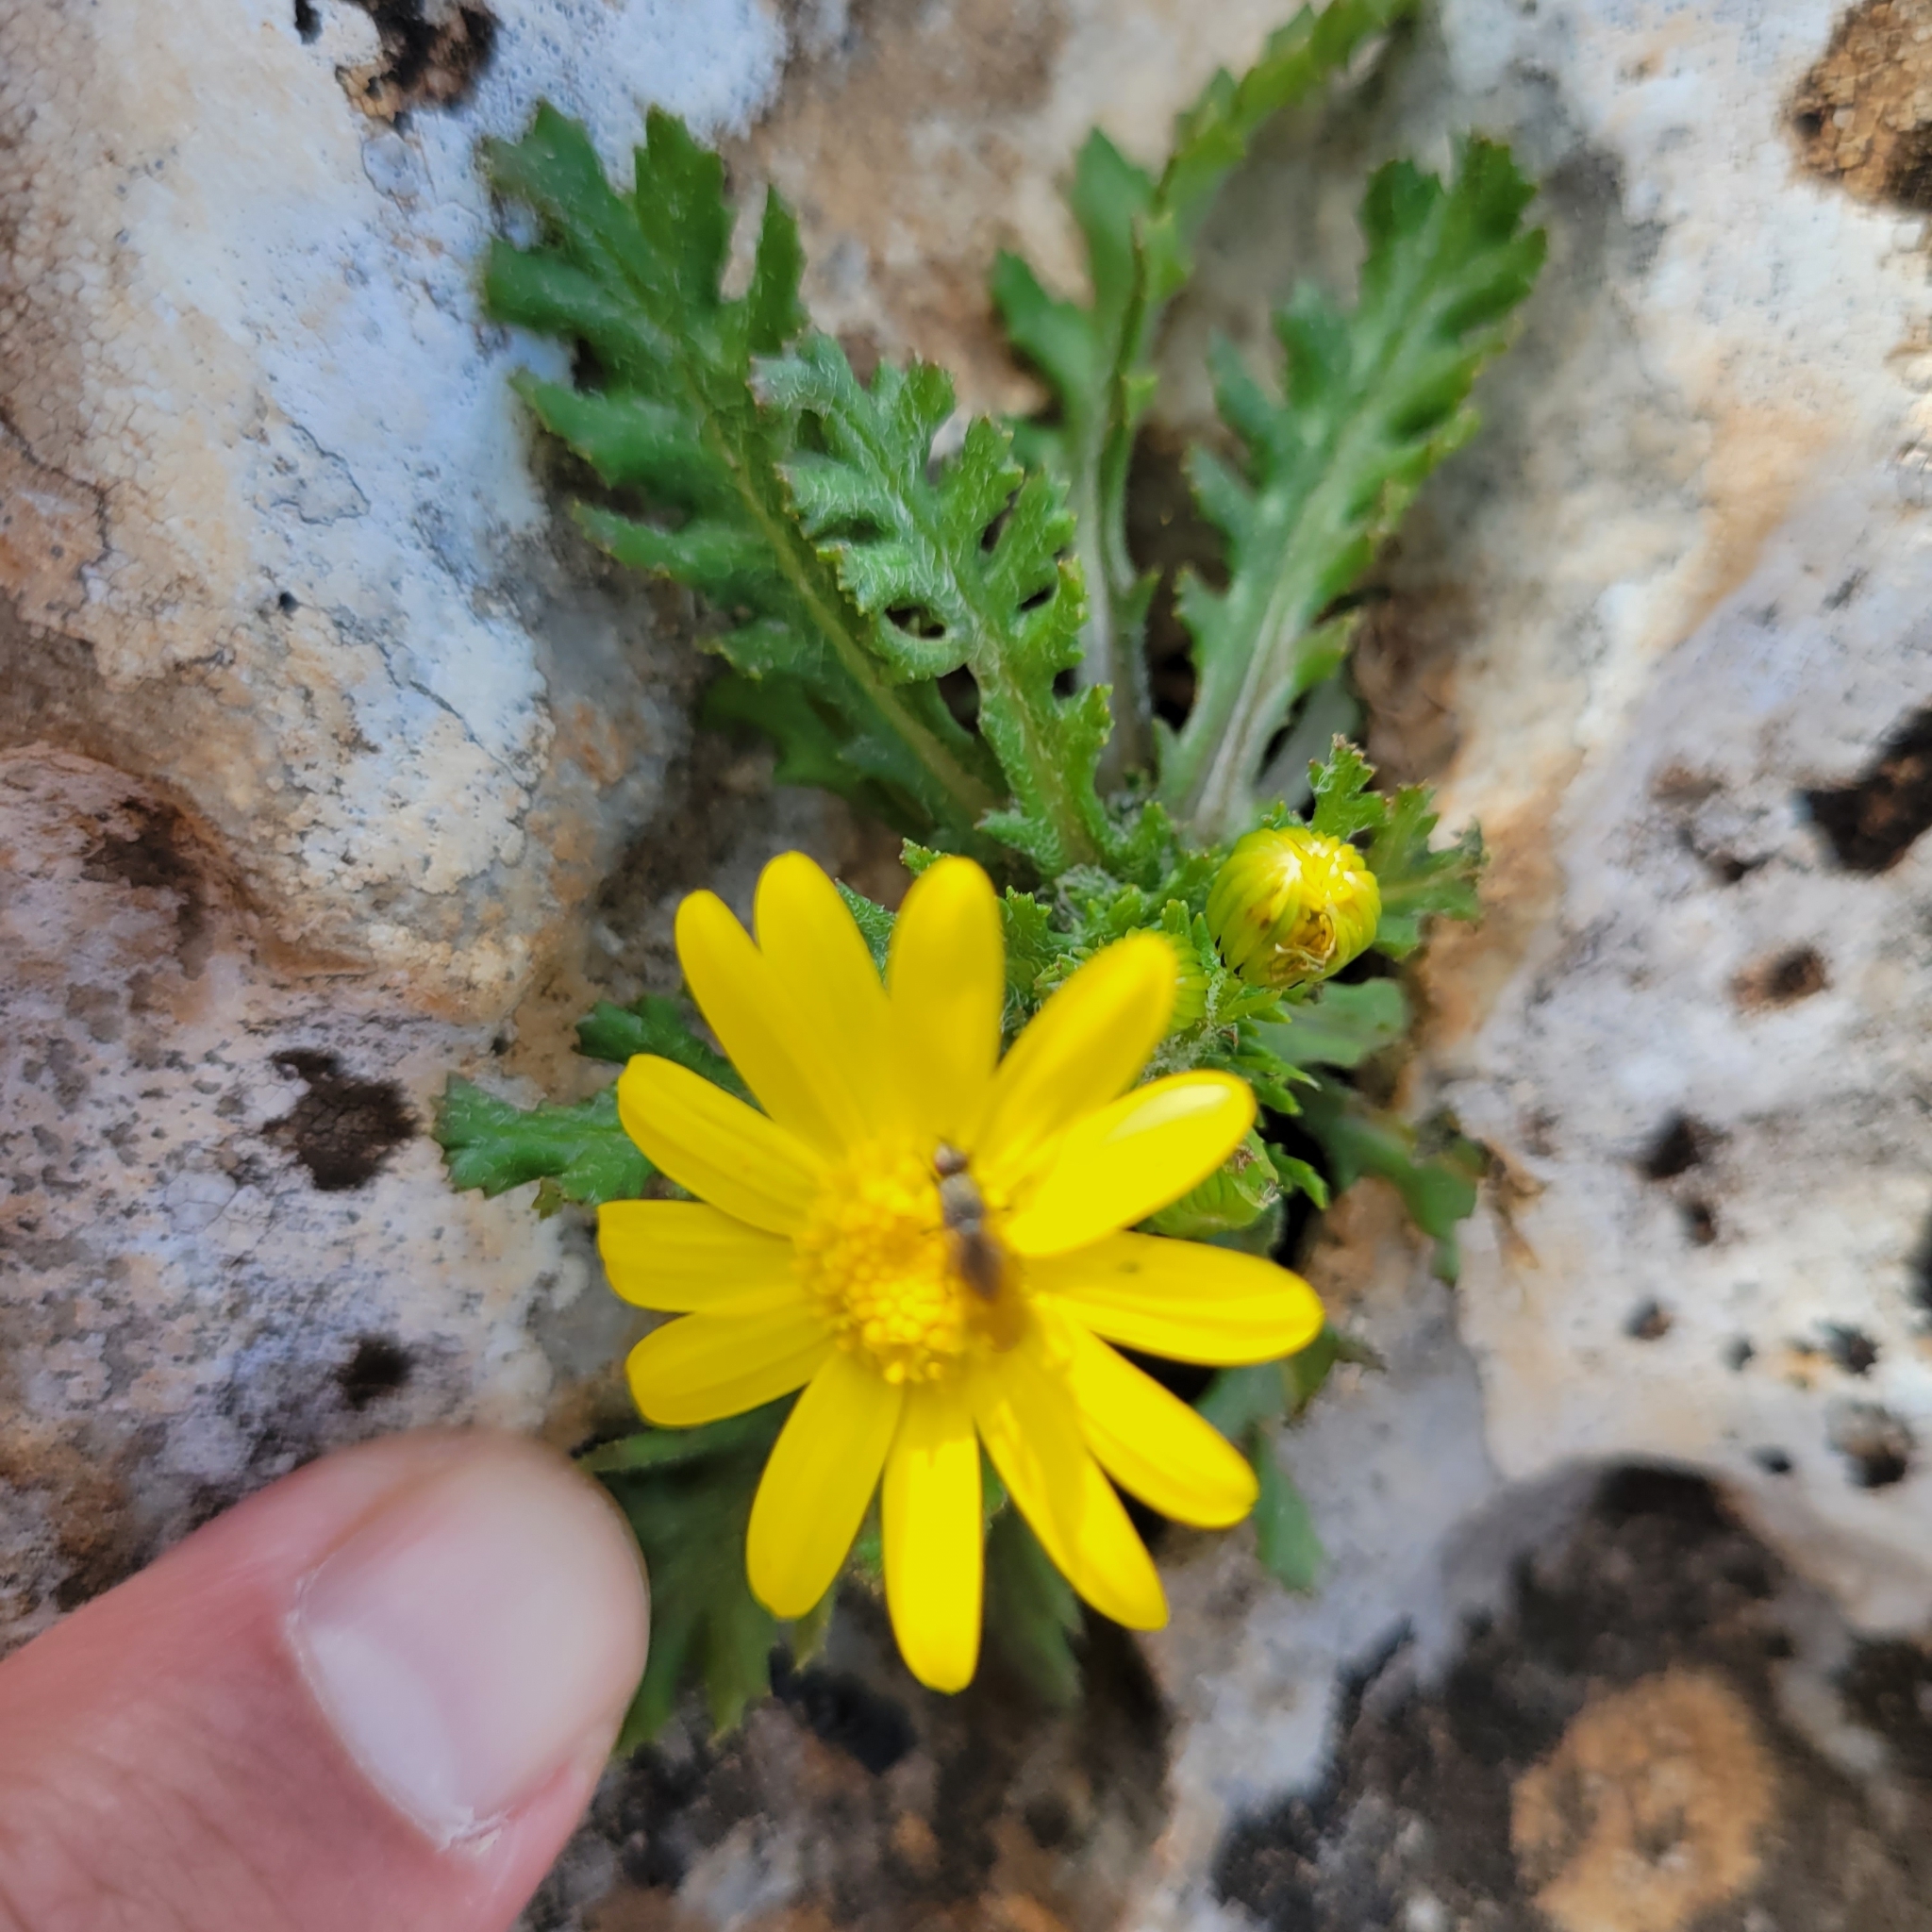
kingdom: Plantae
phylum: Tracheophyta
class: Magnoliopsida
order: Asterales
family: Asteraceae
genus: Senecio
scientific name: Senecio vernalis
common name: Eastern groundsel
